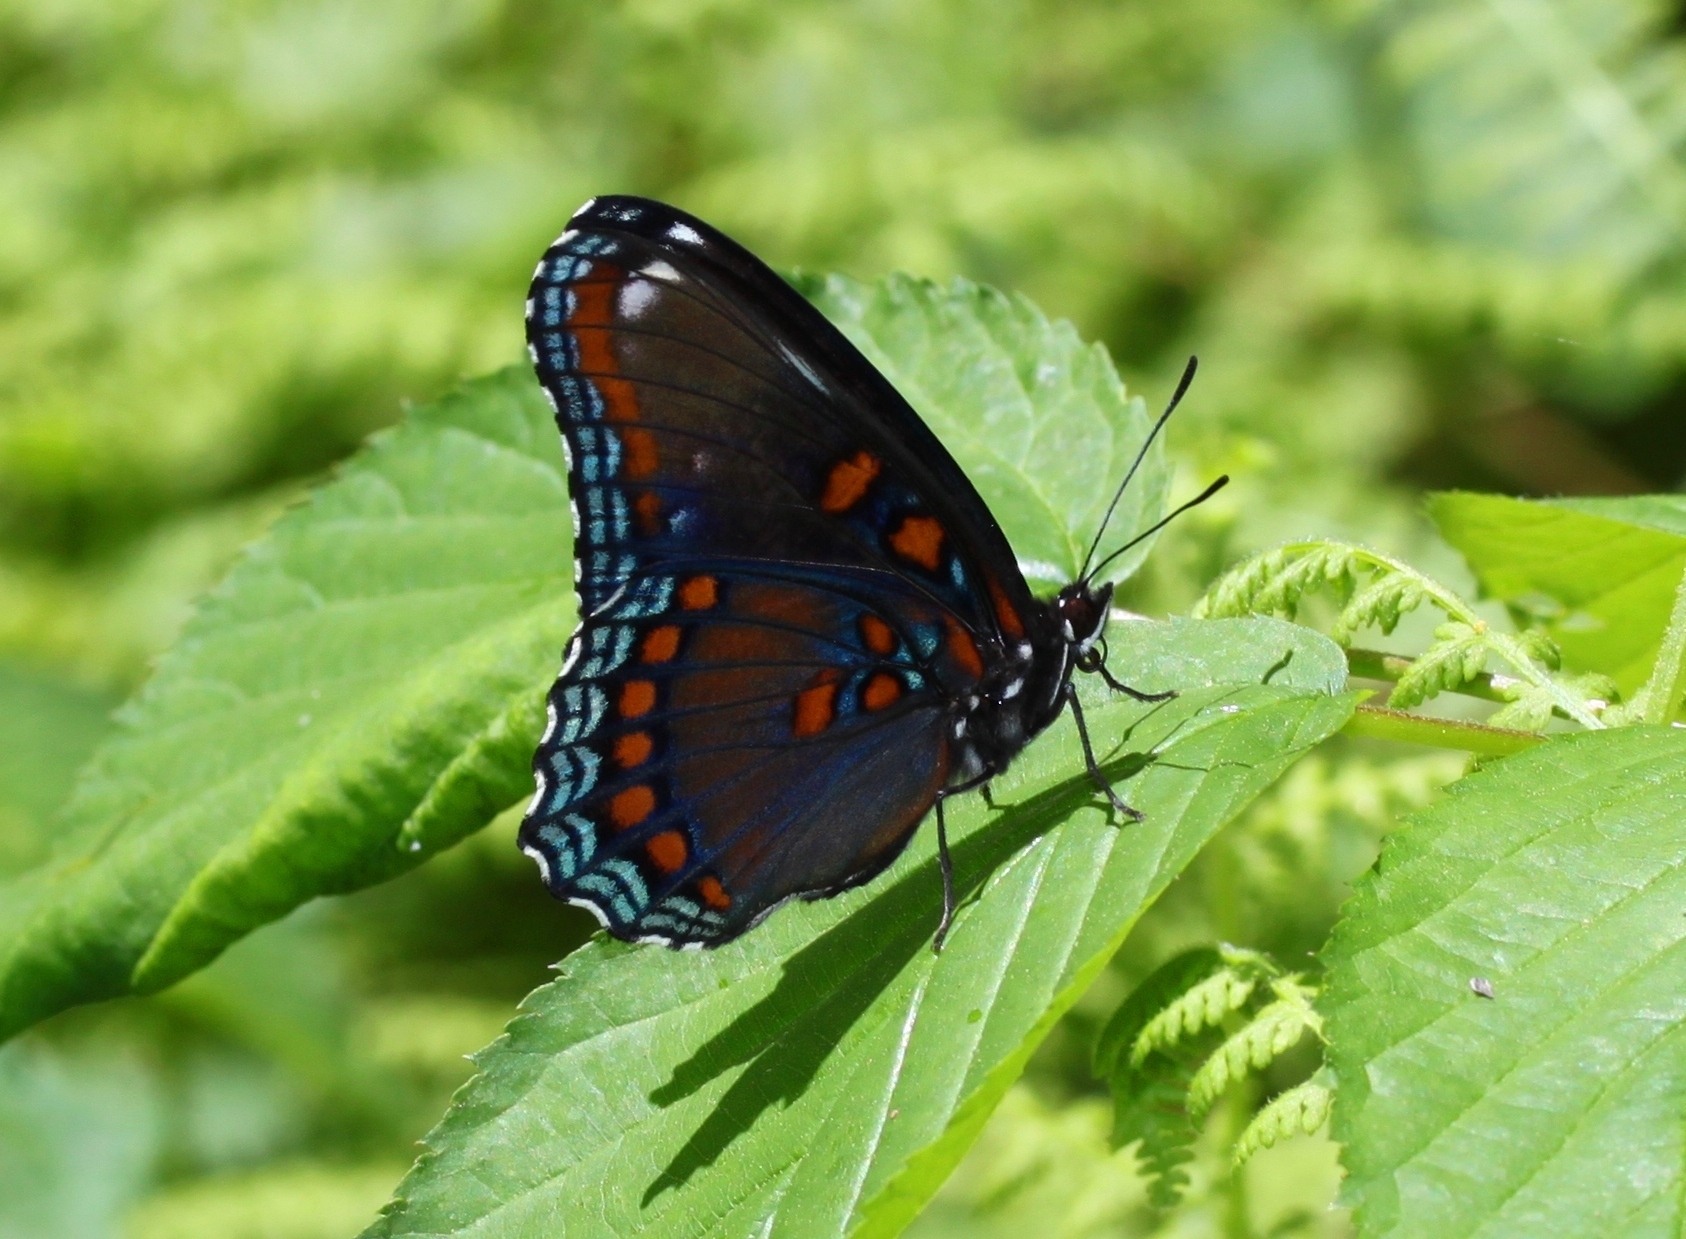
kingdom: Animalia
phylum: Arthropoda
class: Insecta
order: Lepidoptera
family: Nymphalidae
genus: Limenitis
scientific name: Limenitis astyanax
